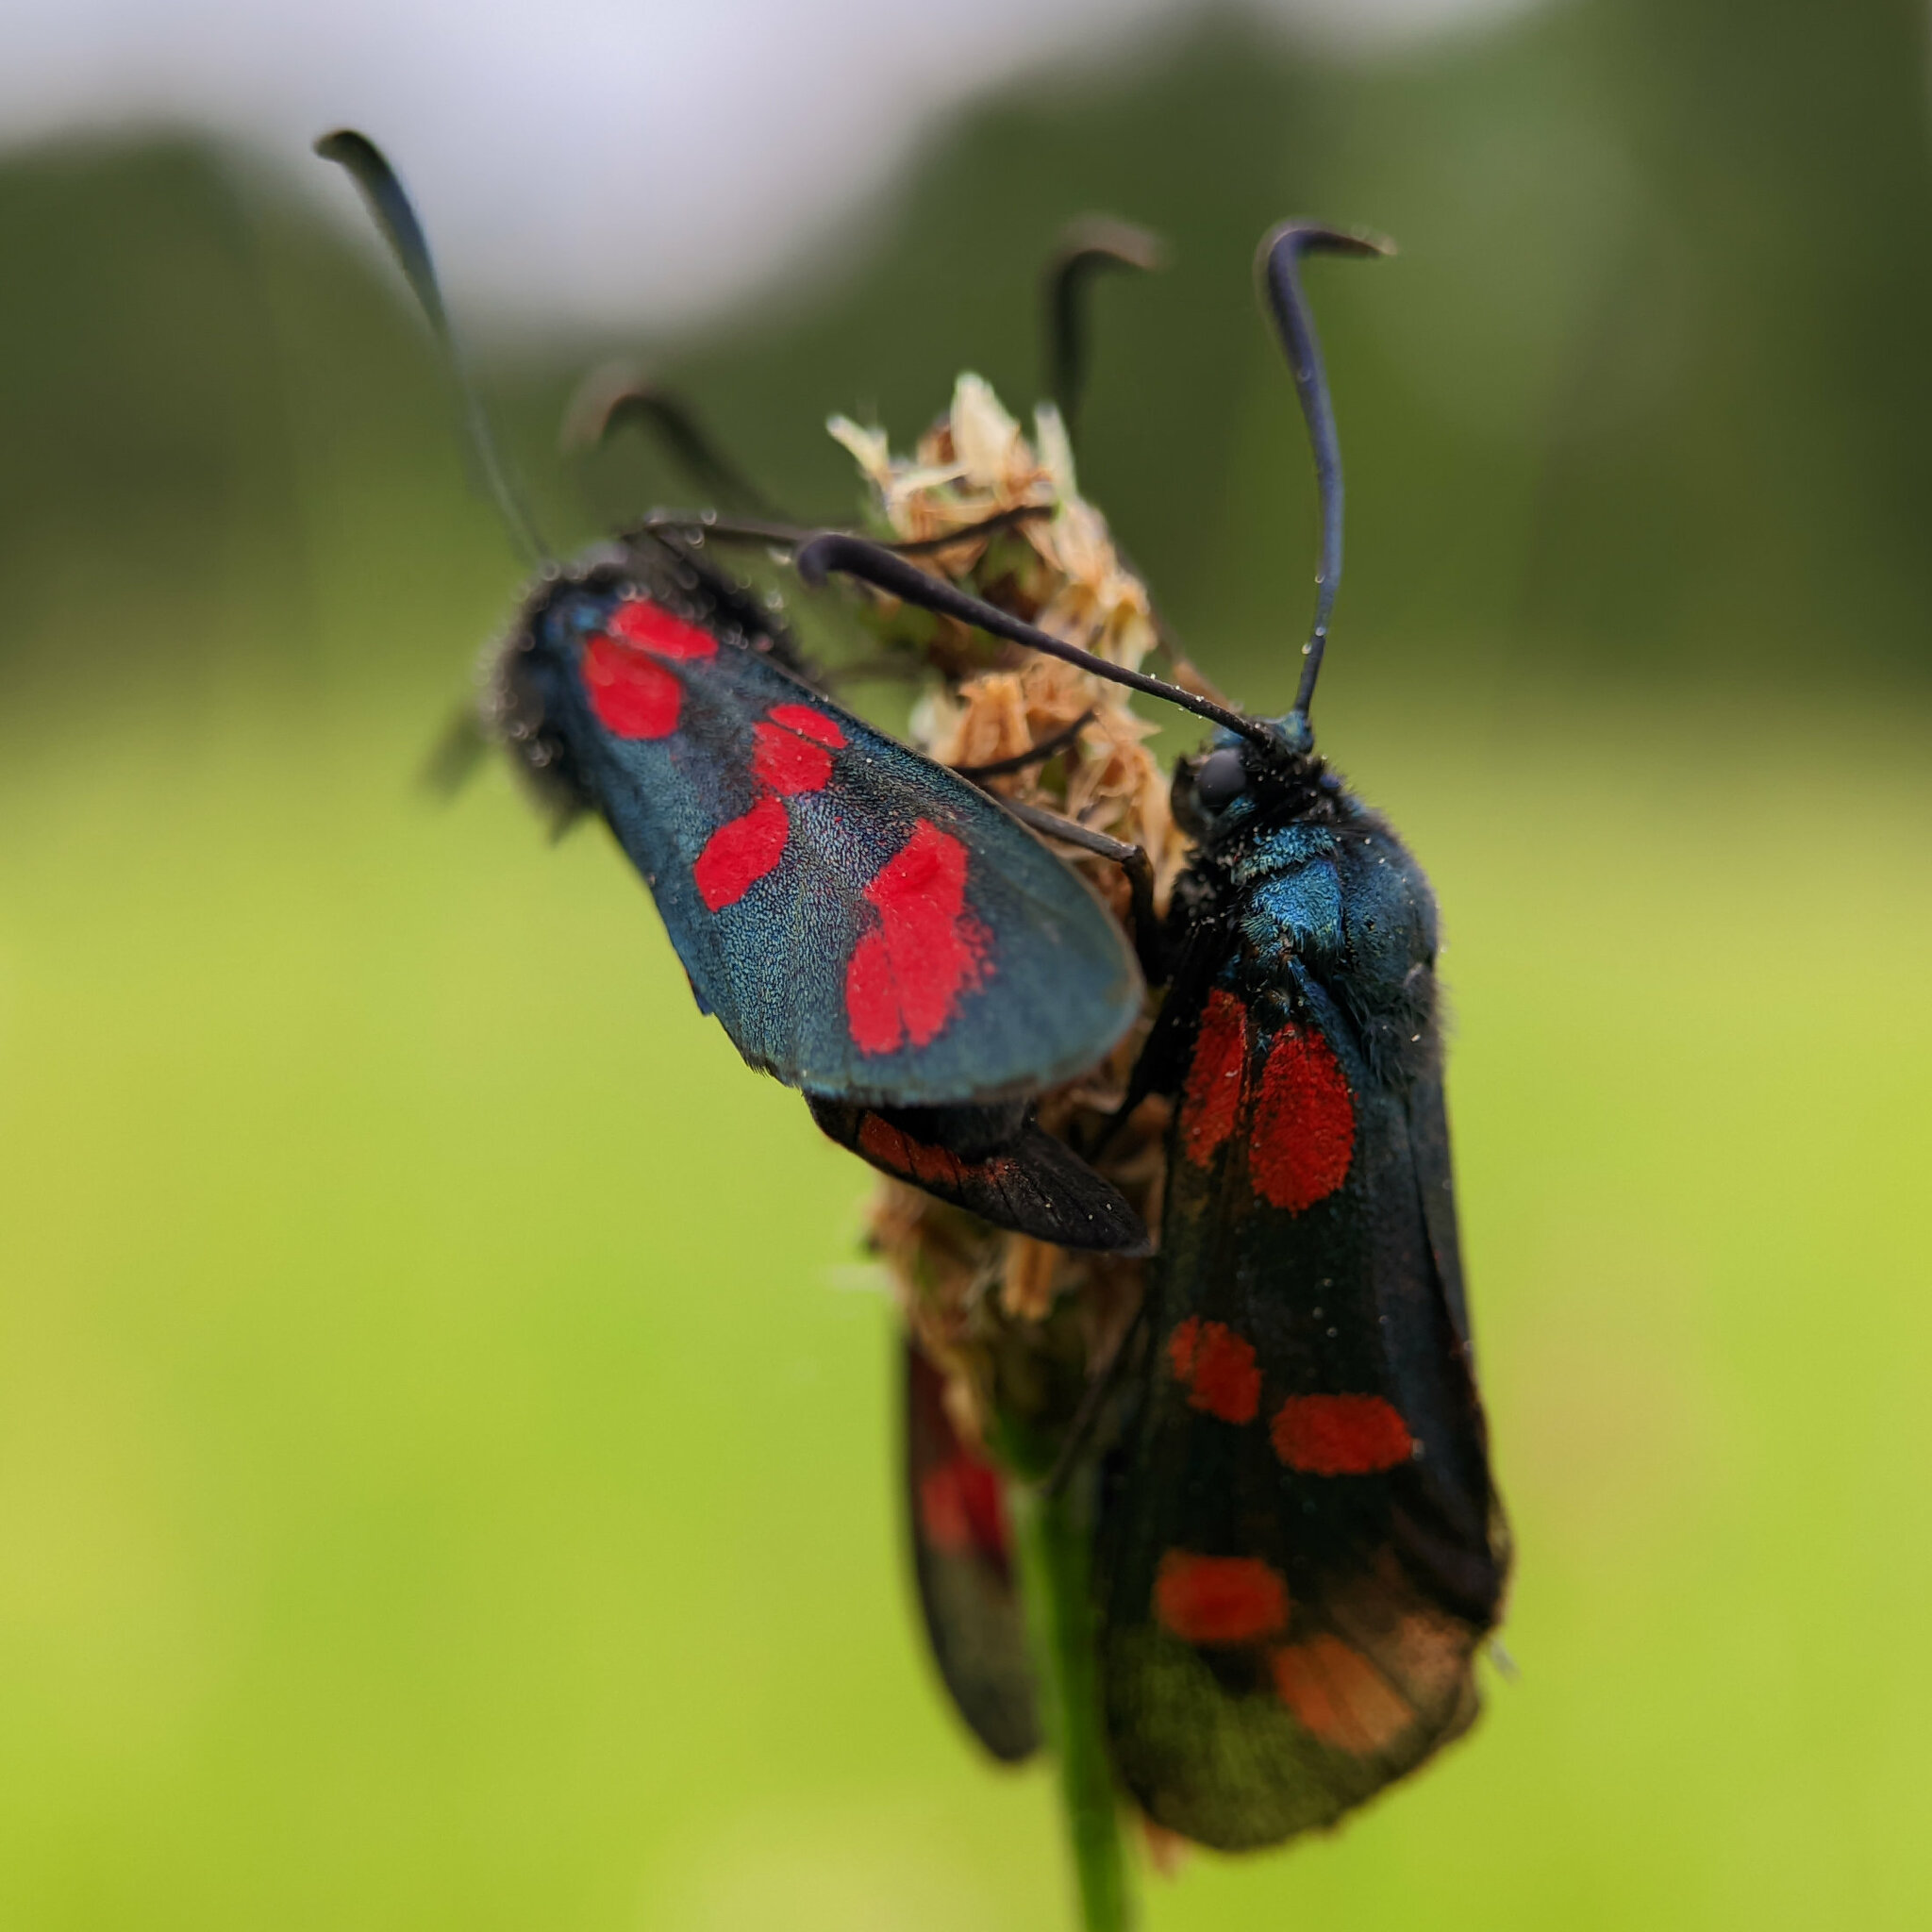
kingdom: Animalia
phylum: Arthropoda
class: Insecta
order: Lepidoptera
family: Zygaenidae
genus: Zygaena
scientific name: Zygaena filipendulae
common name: Six-spot burnet
